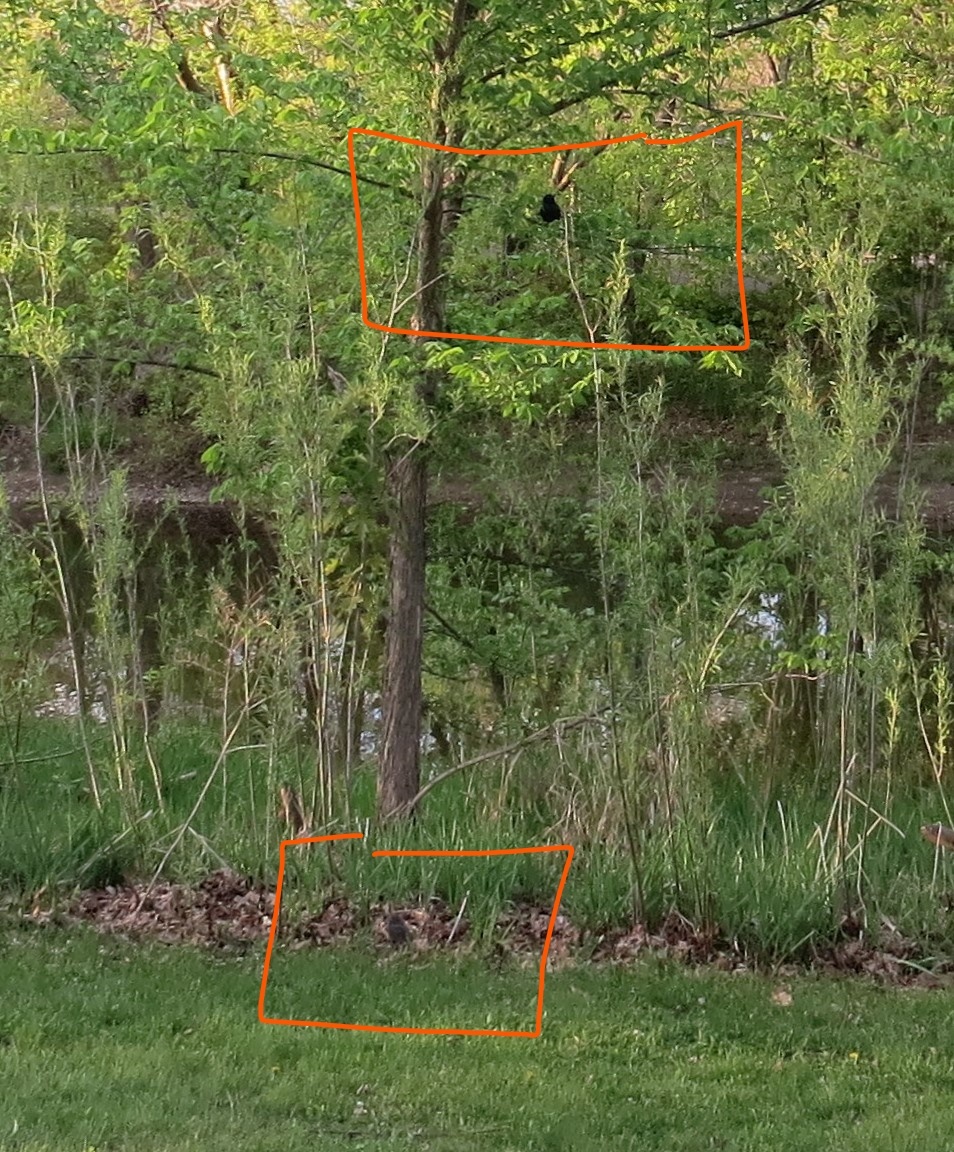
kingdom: Animalia
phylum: Chordata
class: Aves
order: Passeriformes
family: Icteridae
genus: Quiscalus
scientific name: Quiscalus quiscula
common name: Common grackle
